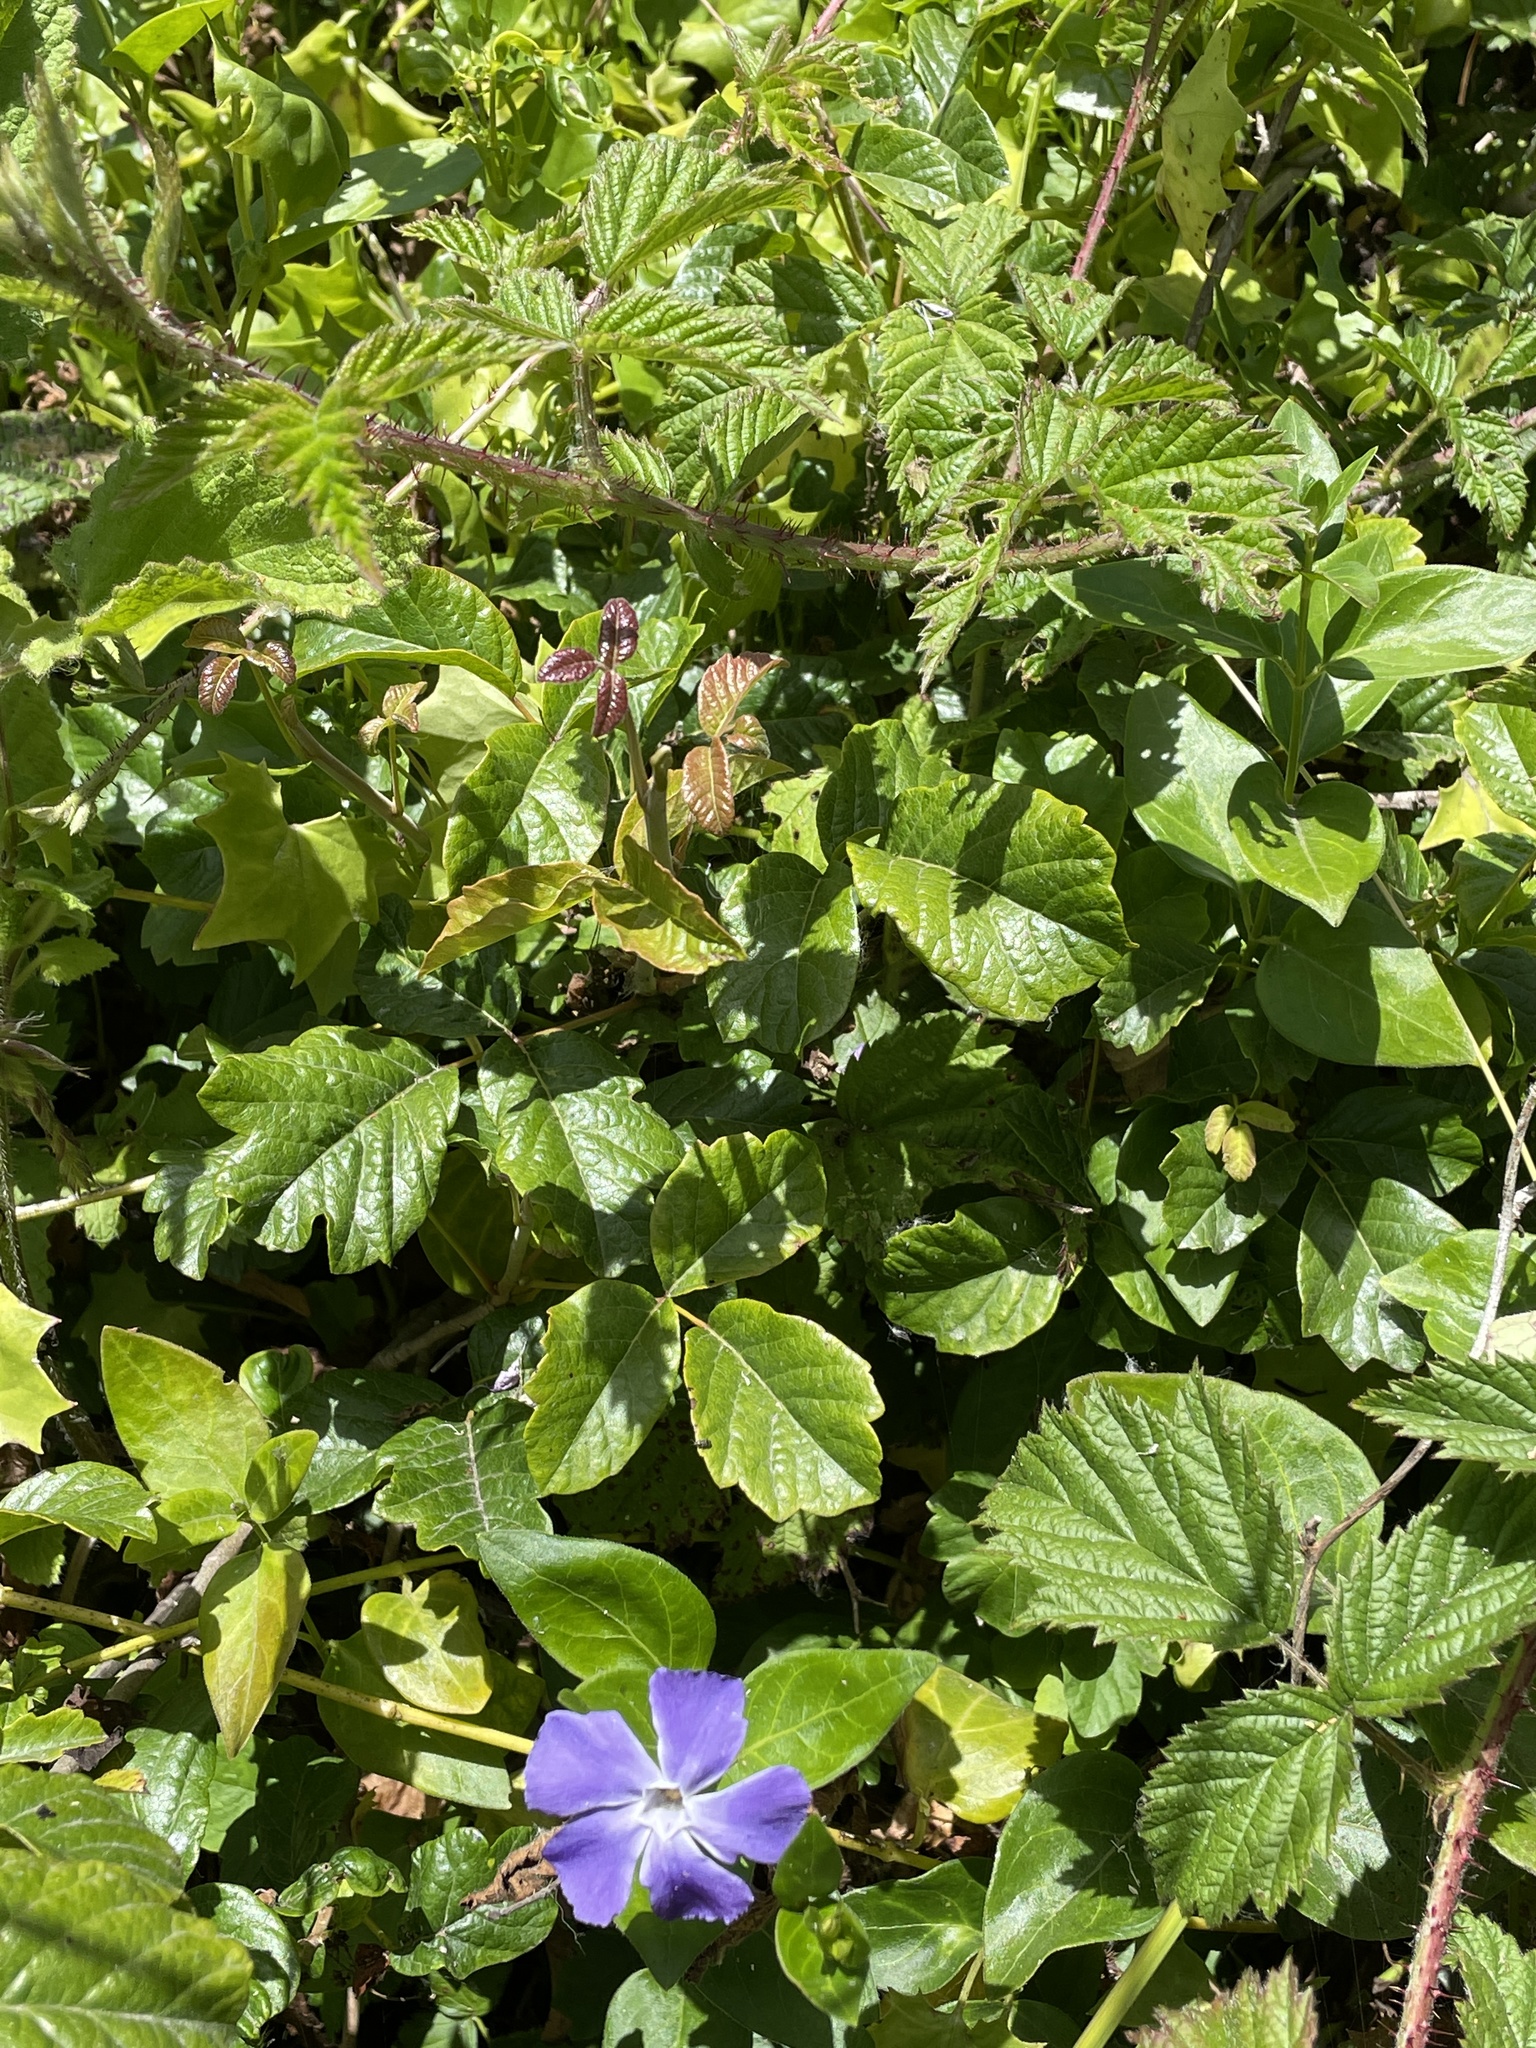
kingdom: Plantae
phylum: Tracheophyta
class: Magnoliopsida
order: Sapindales
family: Anacardiaceae
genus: Toxicodendron
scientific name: Toxicodendron diversilobum
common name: Pacific poison-oak
